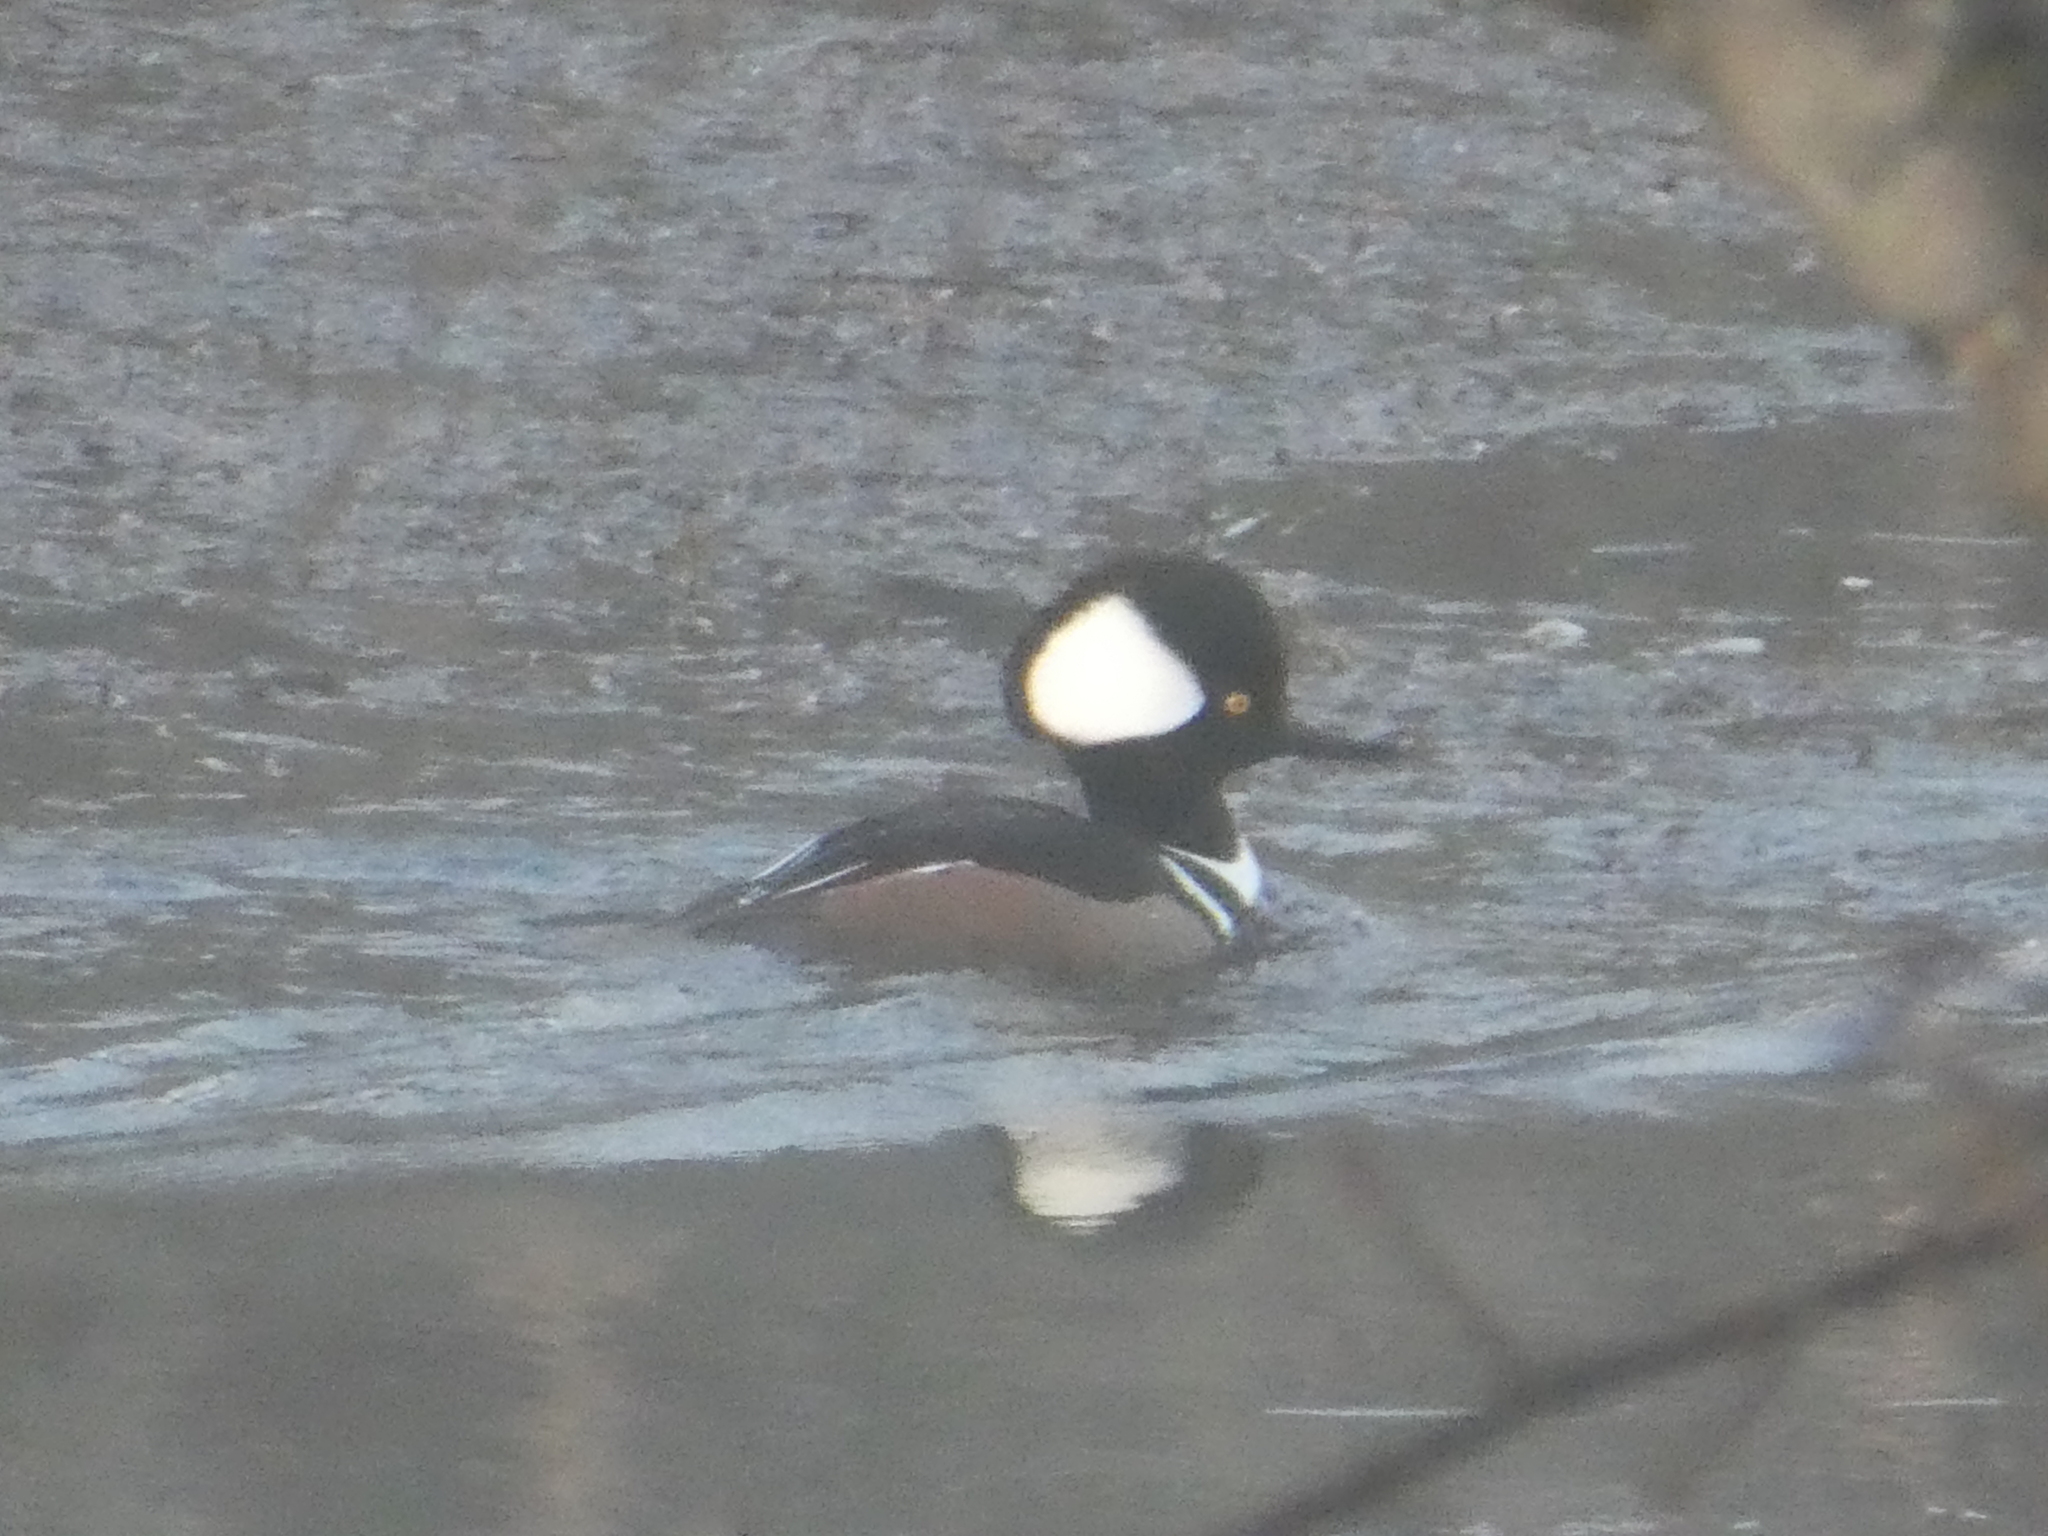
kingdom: Animalia
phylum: Chordata
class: Aves
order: Anseriformes
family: Anatidae
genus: Lophodytes
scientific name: Lophodytes cucullatus
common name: Hooded merganser
